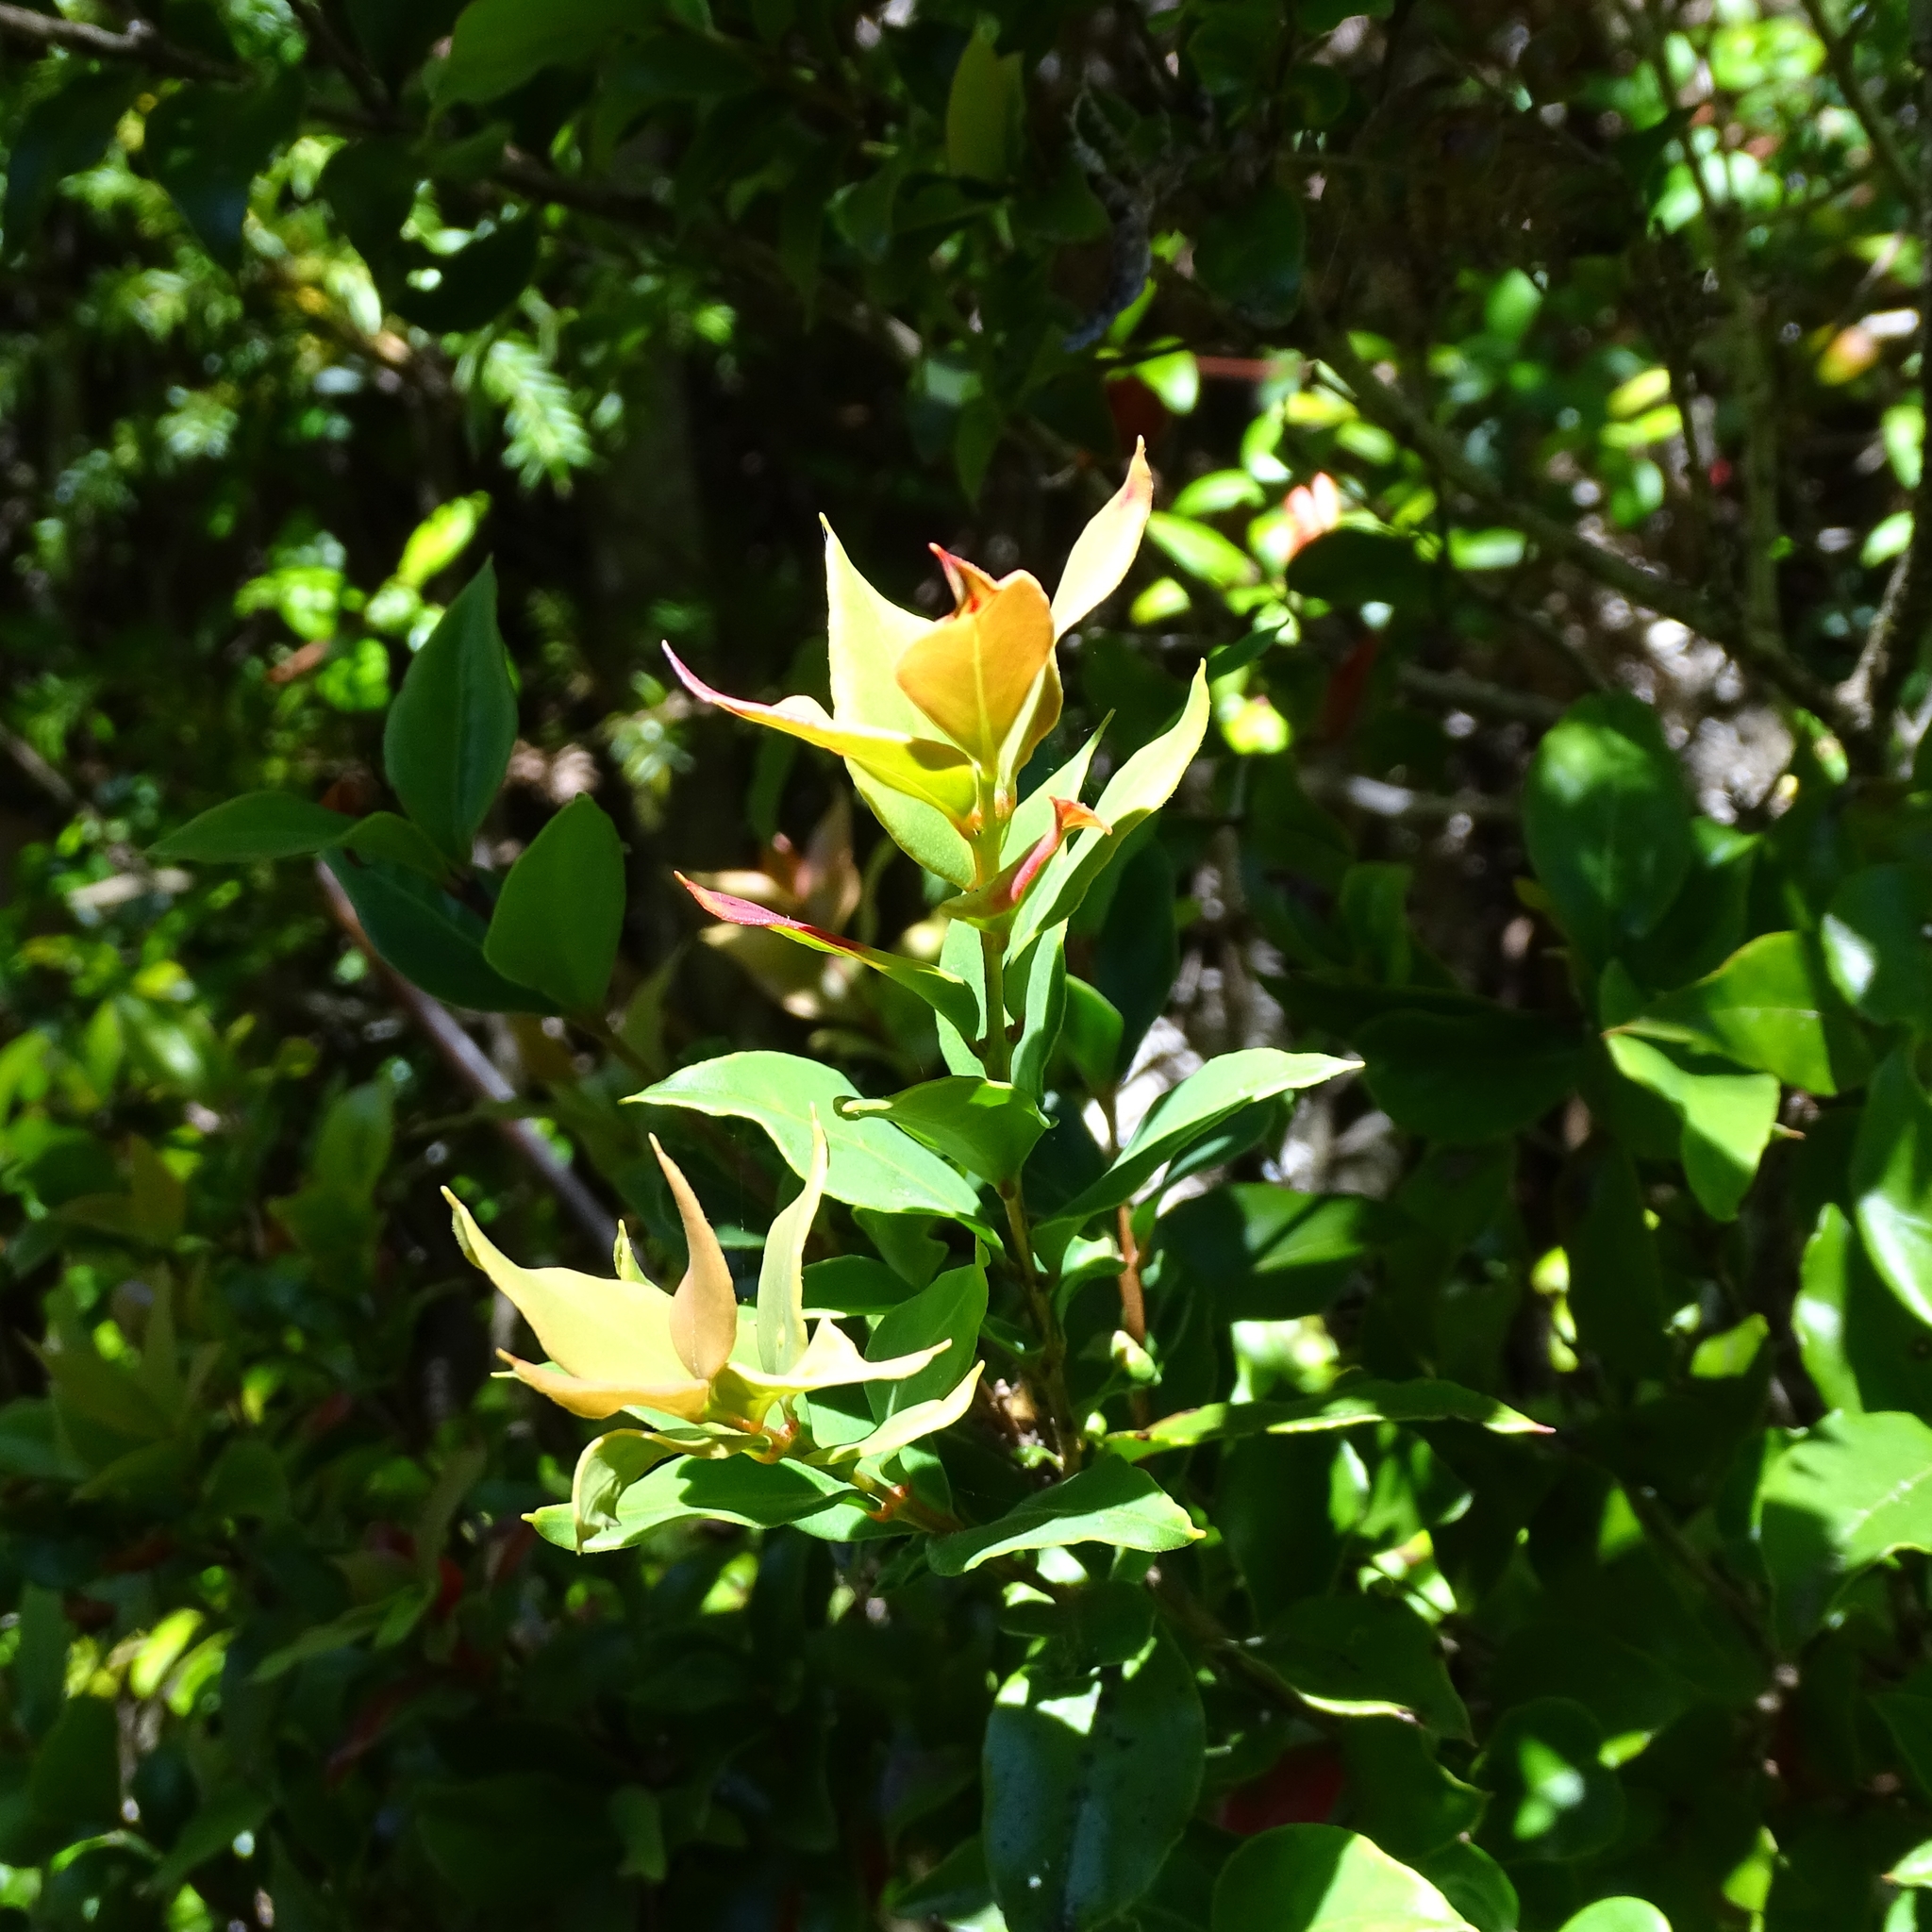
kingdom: Plantae
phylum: Tracheophyta
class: Magnoliopsida
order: Myrtales
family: Myrtaceae
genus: Amomyrtus
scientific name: Amomyrtus meli
